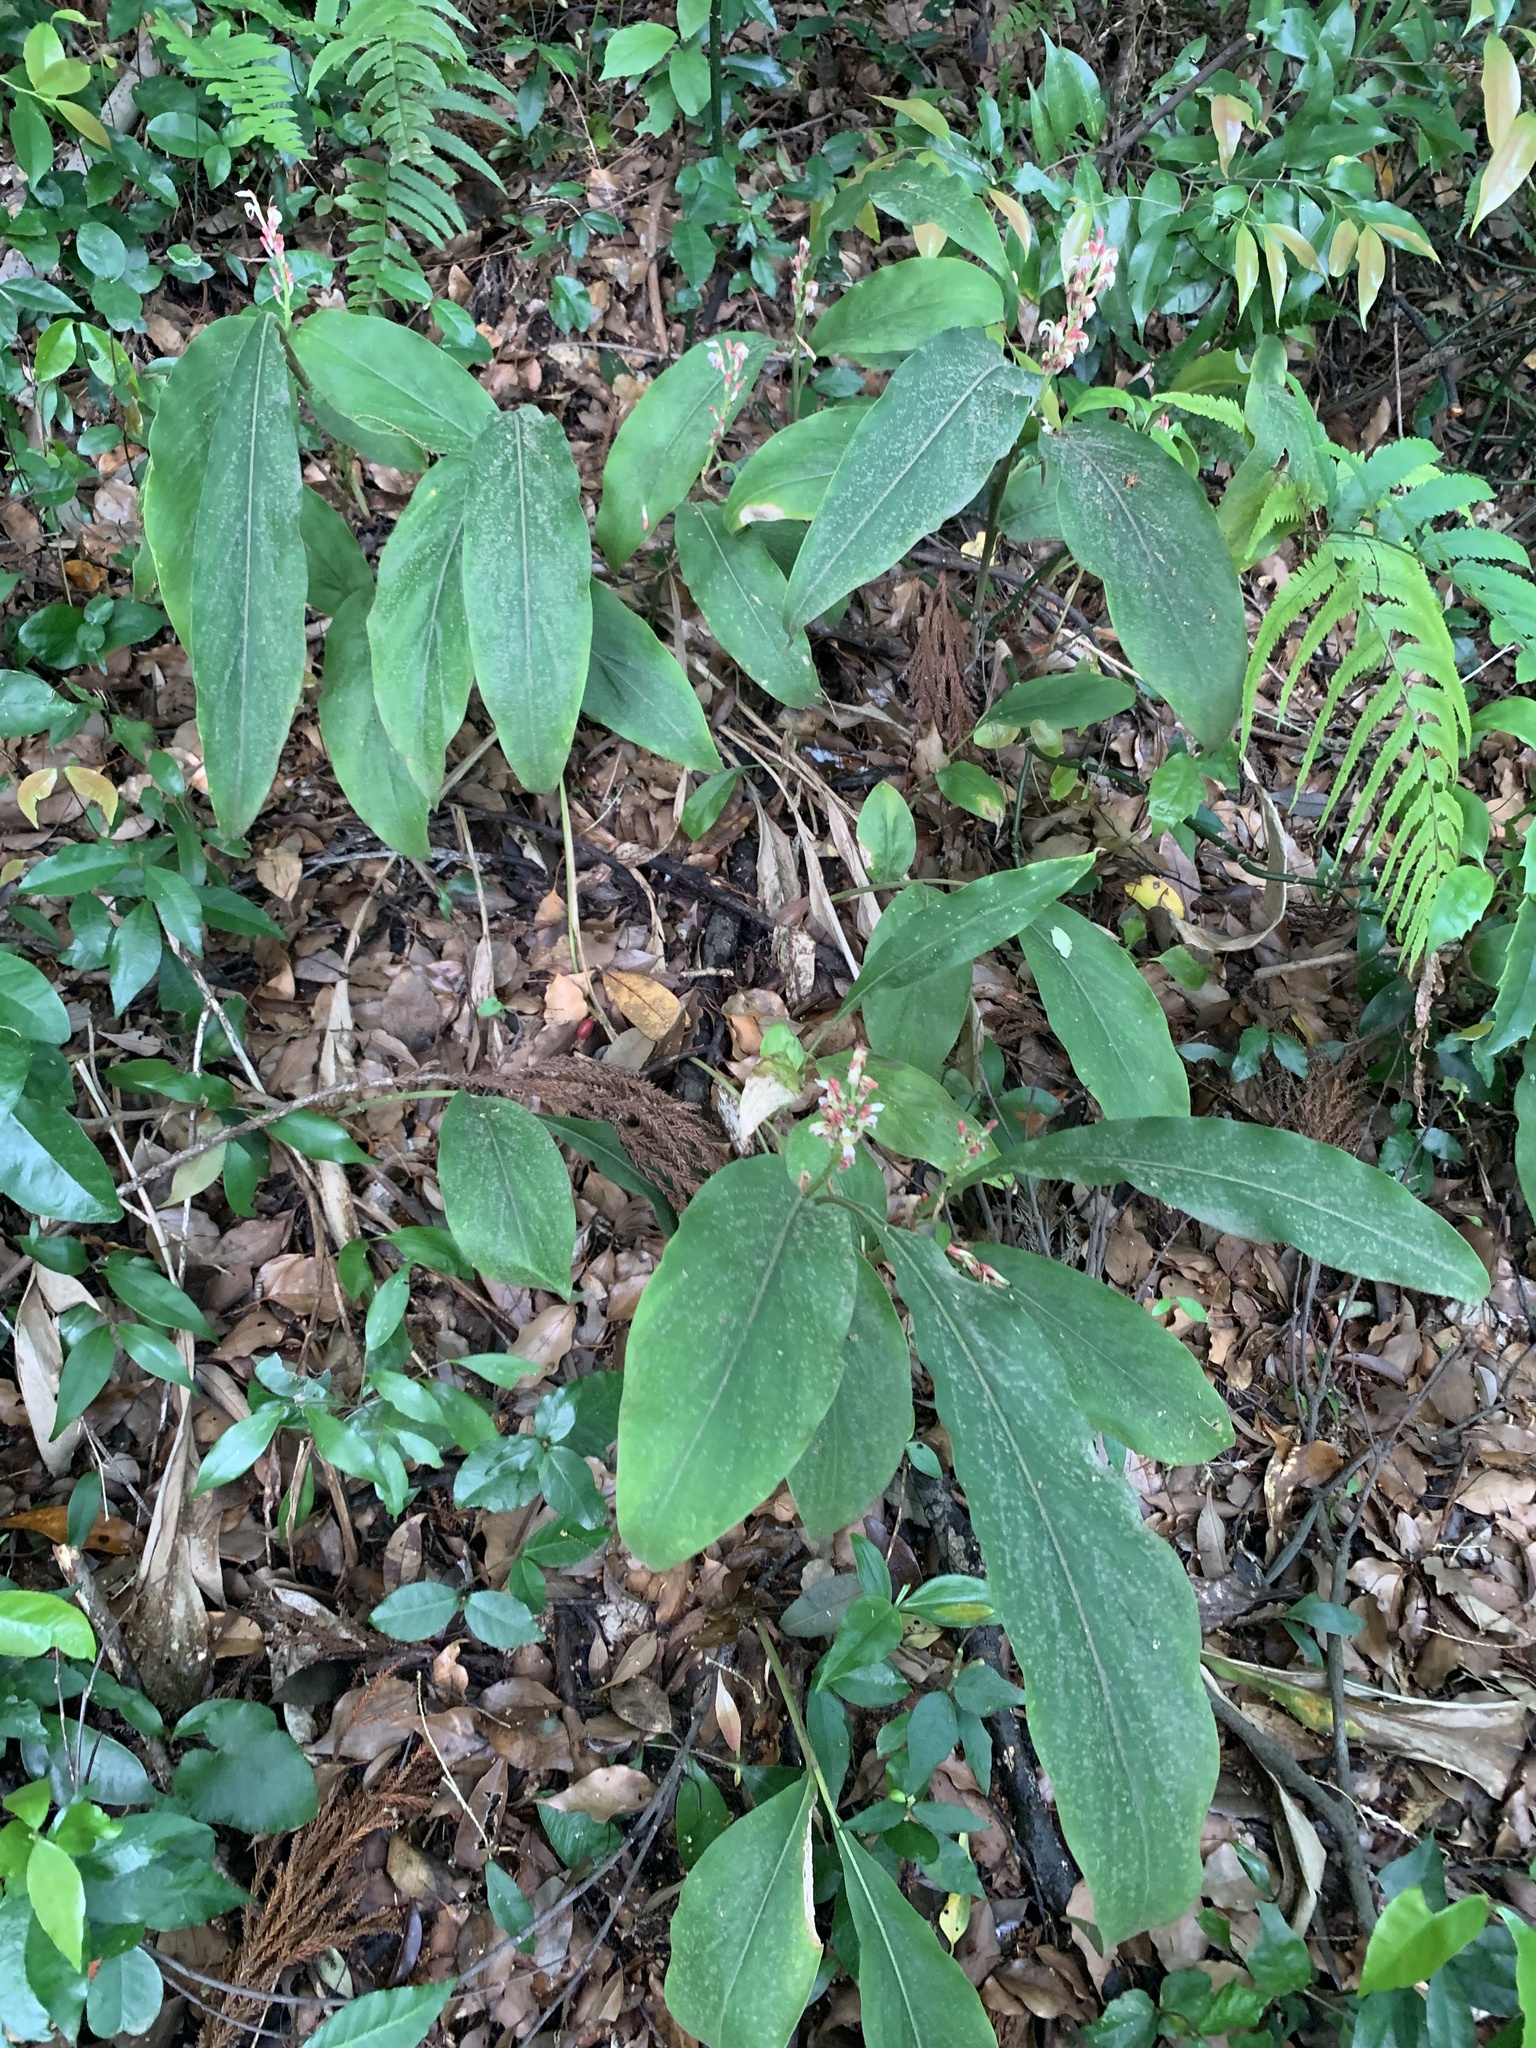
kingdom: Plantae
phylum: Tracheophyta
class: Liliopsida
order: Zingiberales
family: Zingiberaceae
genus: Alpinia
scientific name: Alpinia japonica
